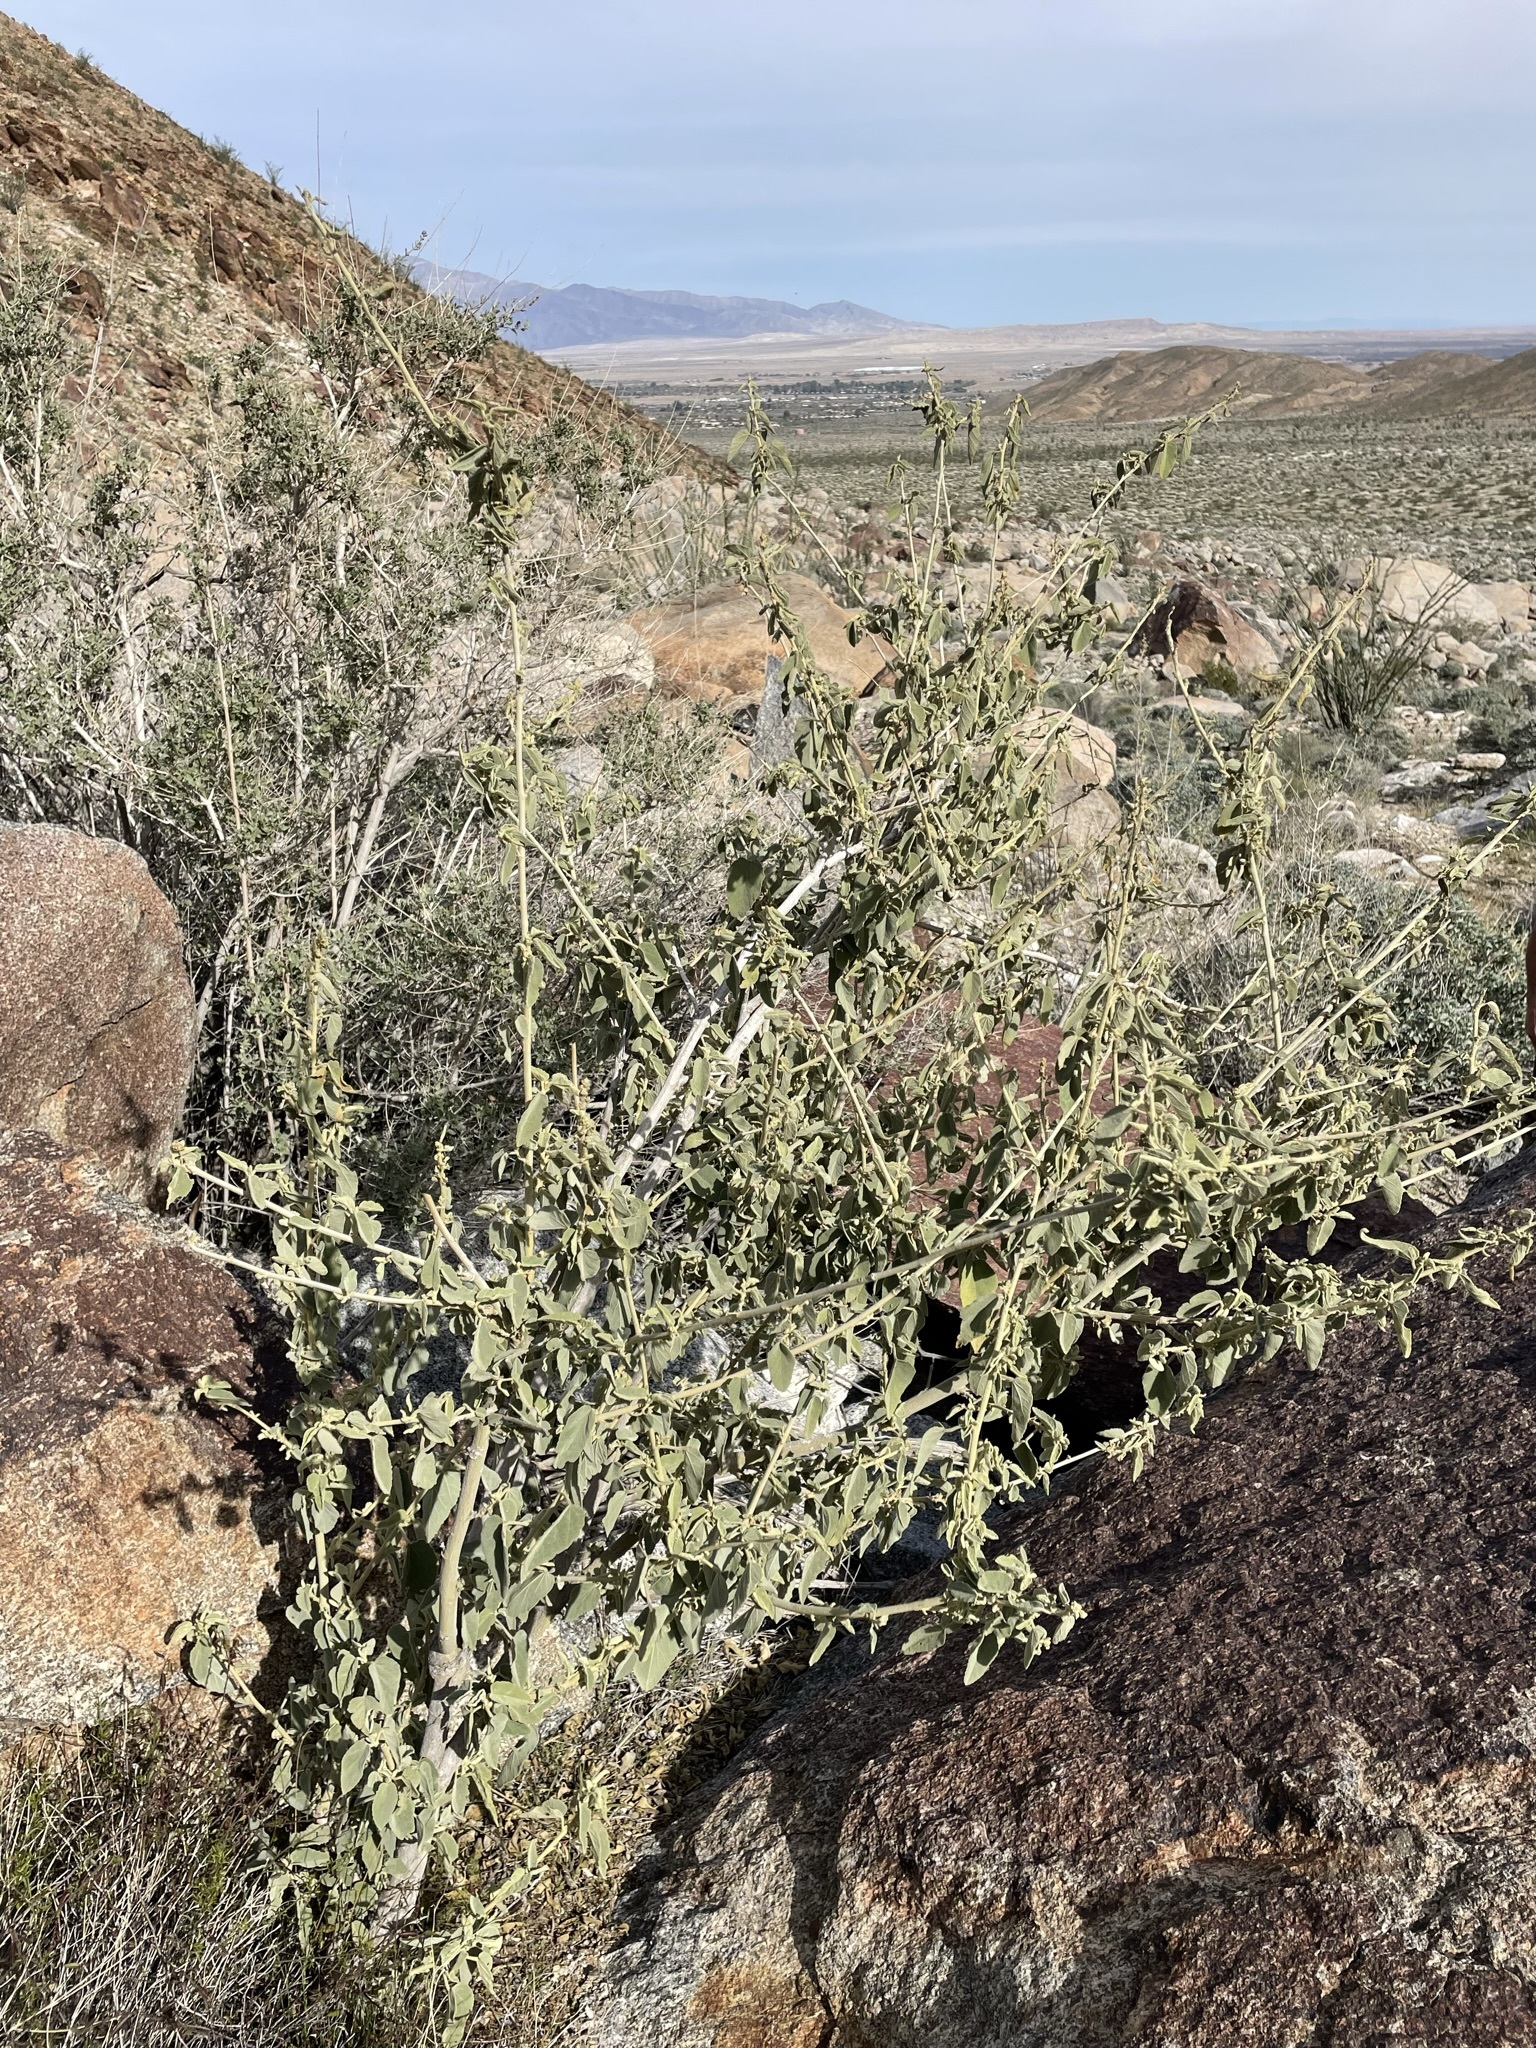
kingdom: Plantae
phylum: Tracheophyta
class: Magnoliopsida
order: Malvales
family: Malvaceae
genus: Horsfordia
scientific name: Horsfordia newberryi
